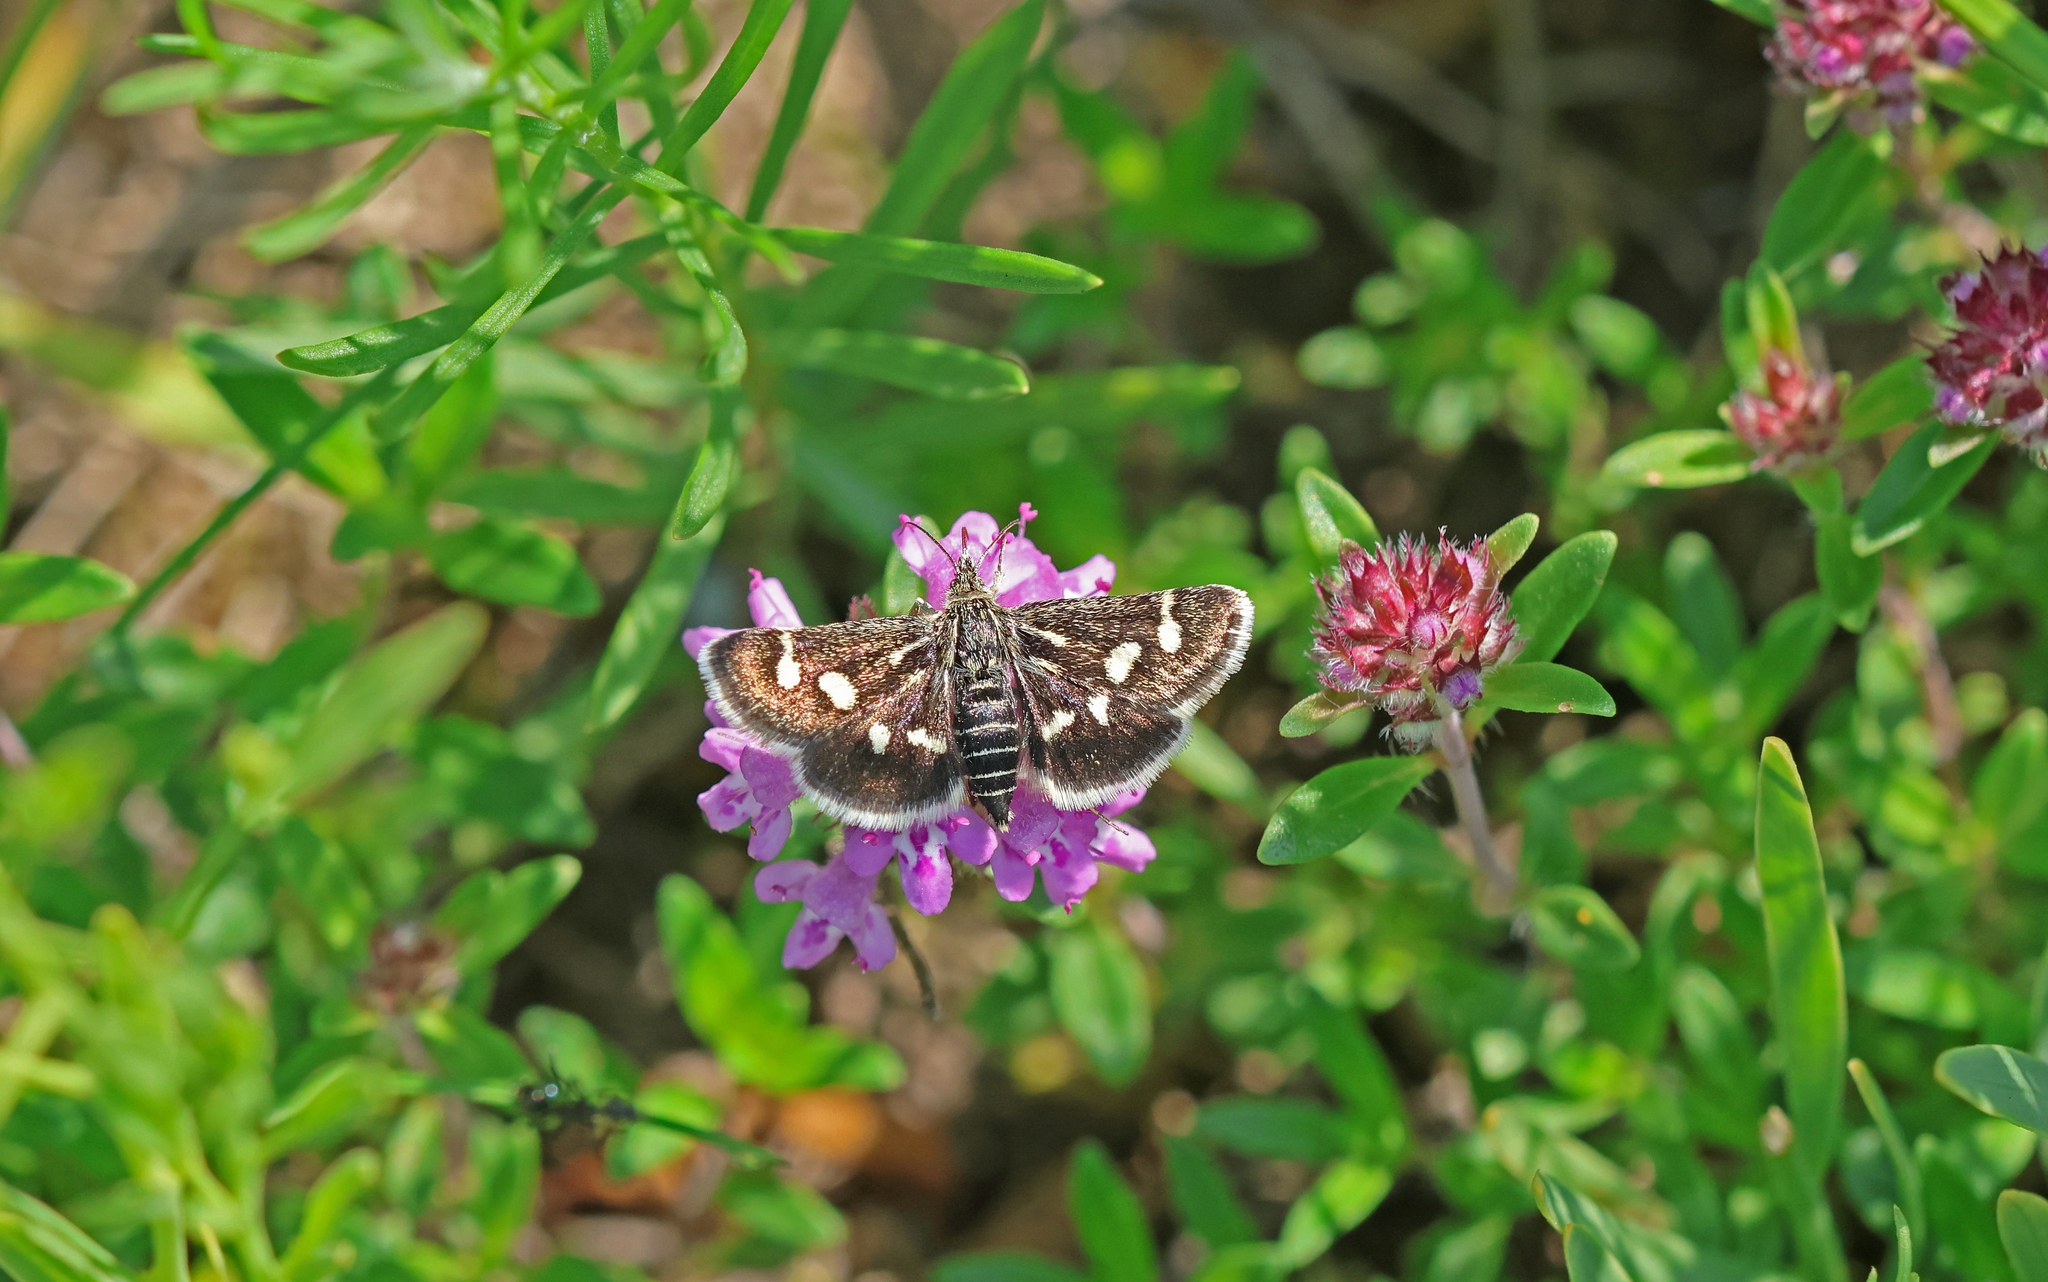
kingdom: Animalia
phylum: Arthropoda
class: Insecta
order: Lepidoptera
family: Crambidae
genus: Eurrhypis
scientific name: Eurrhypis pollinalis
